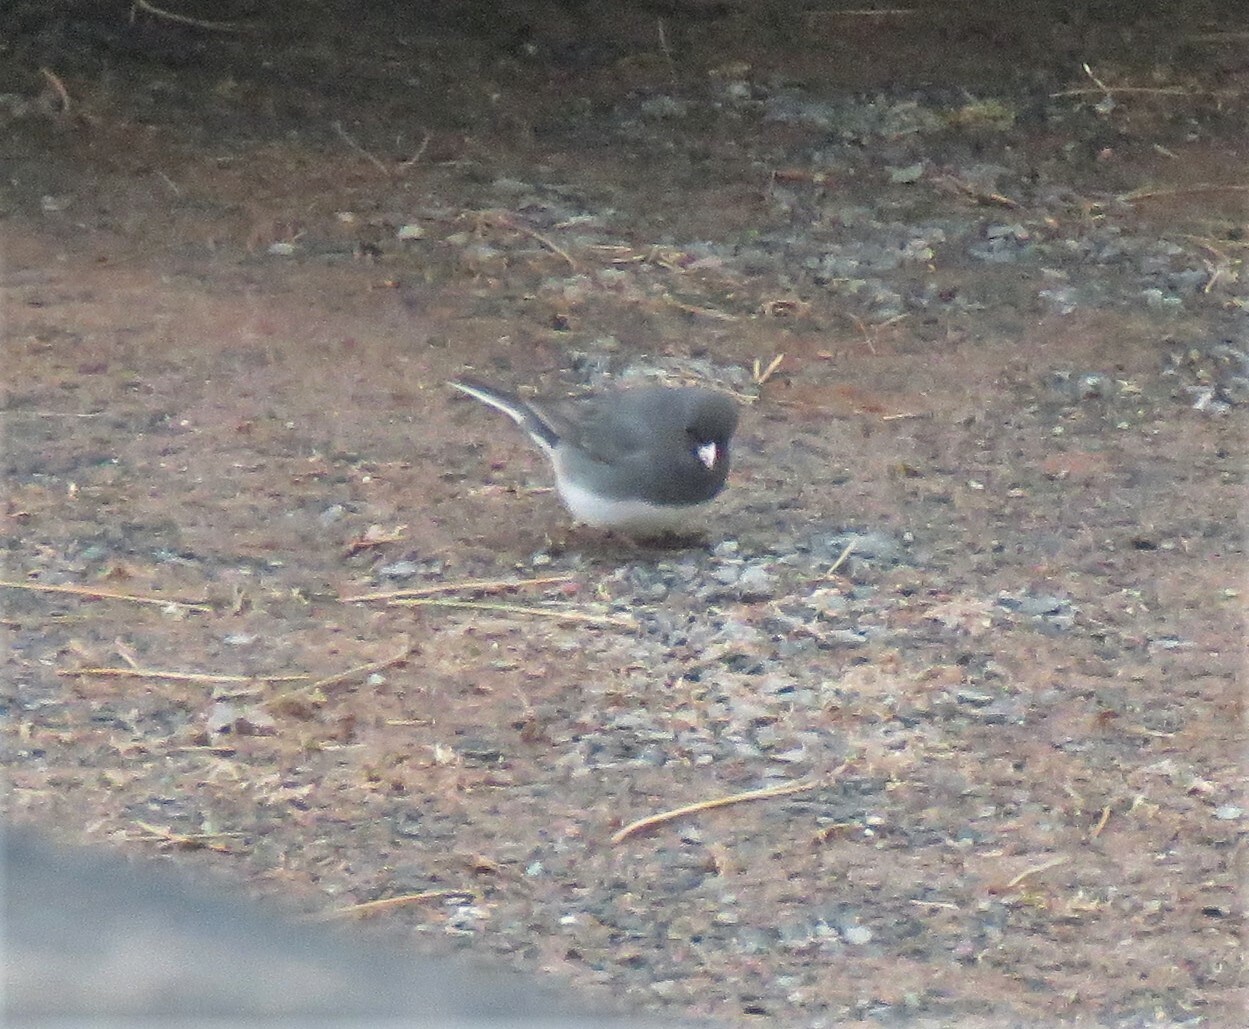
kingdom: Animalia
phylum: Chordata
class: Aves
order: Passeriformes
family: Passerellidae
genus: Junco
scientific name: Junco hyemalis
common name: Dark-eyed junco
